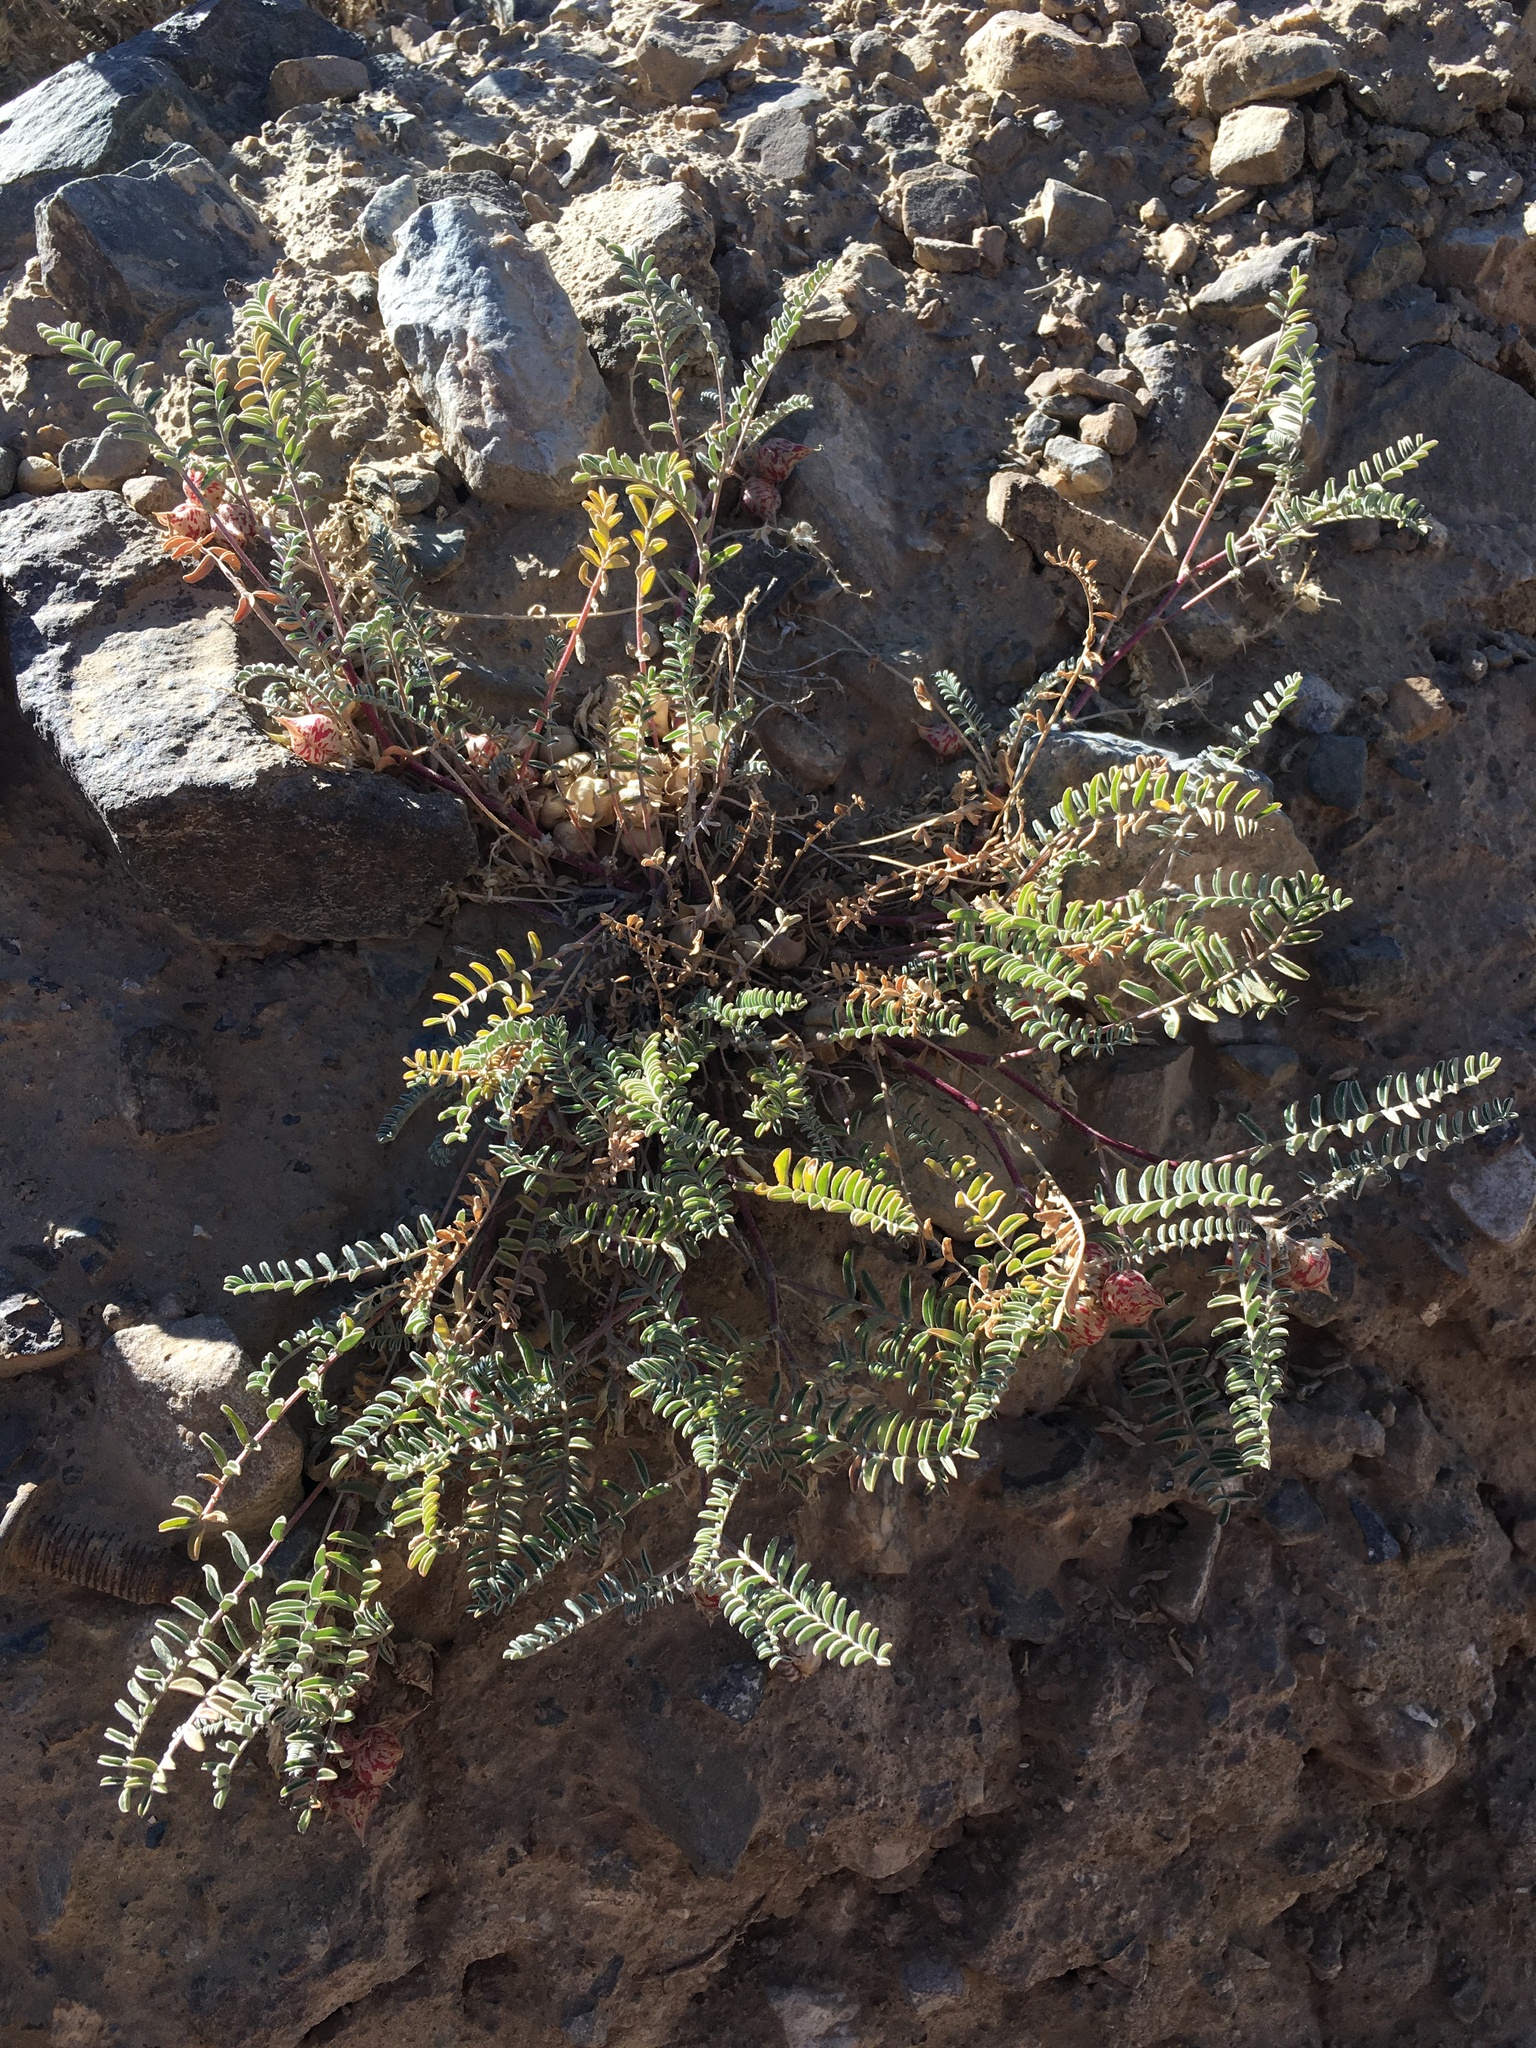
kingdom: Plantae
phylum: Tracheophyta
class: Magnoliopsida
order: Fabales
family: Fabaceae
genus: Astragalus
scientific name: Astragalus lentiginosus
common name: Freckled milkvetch
